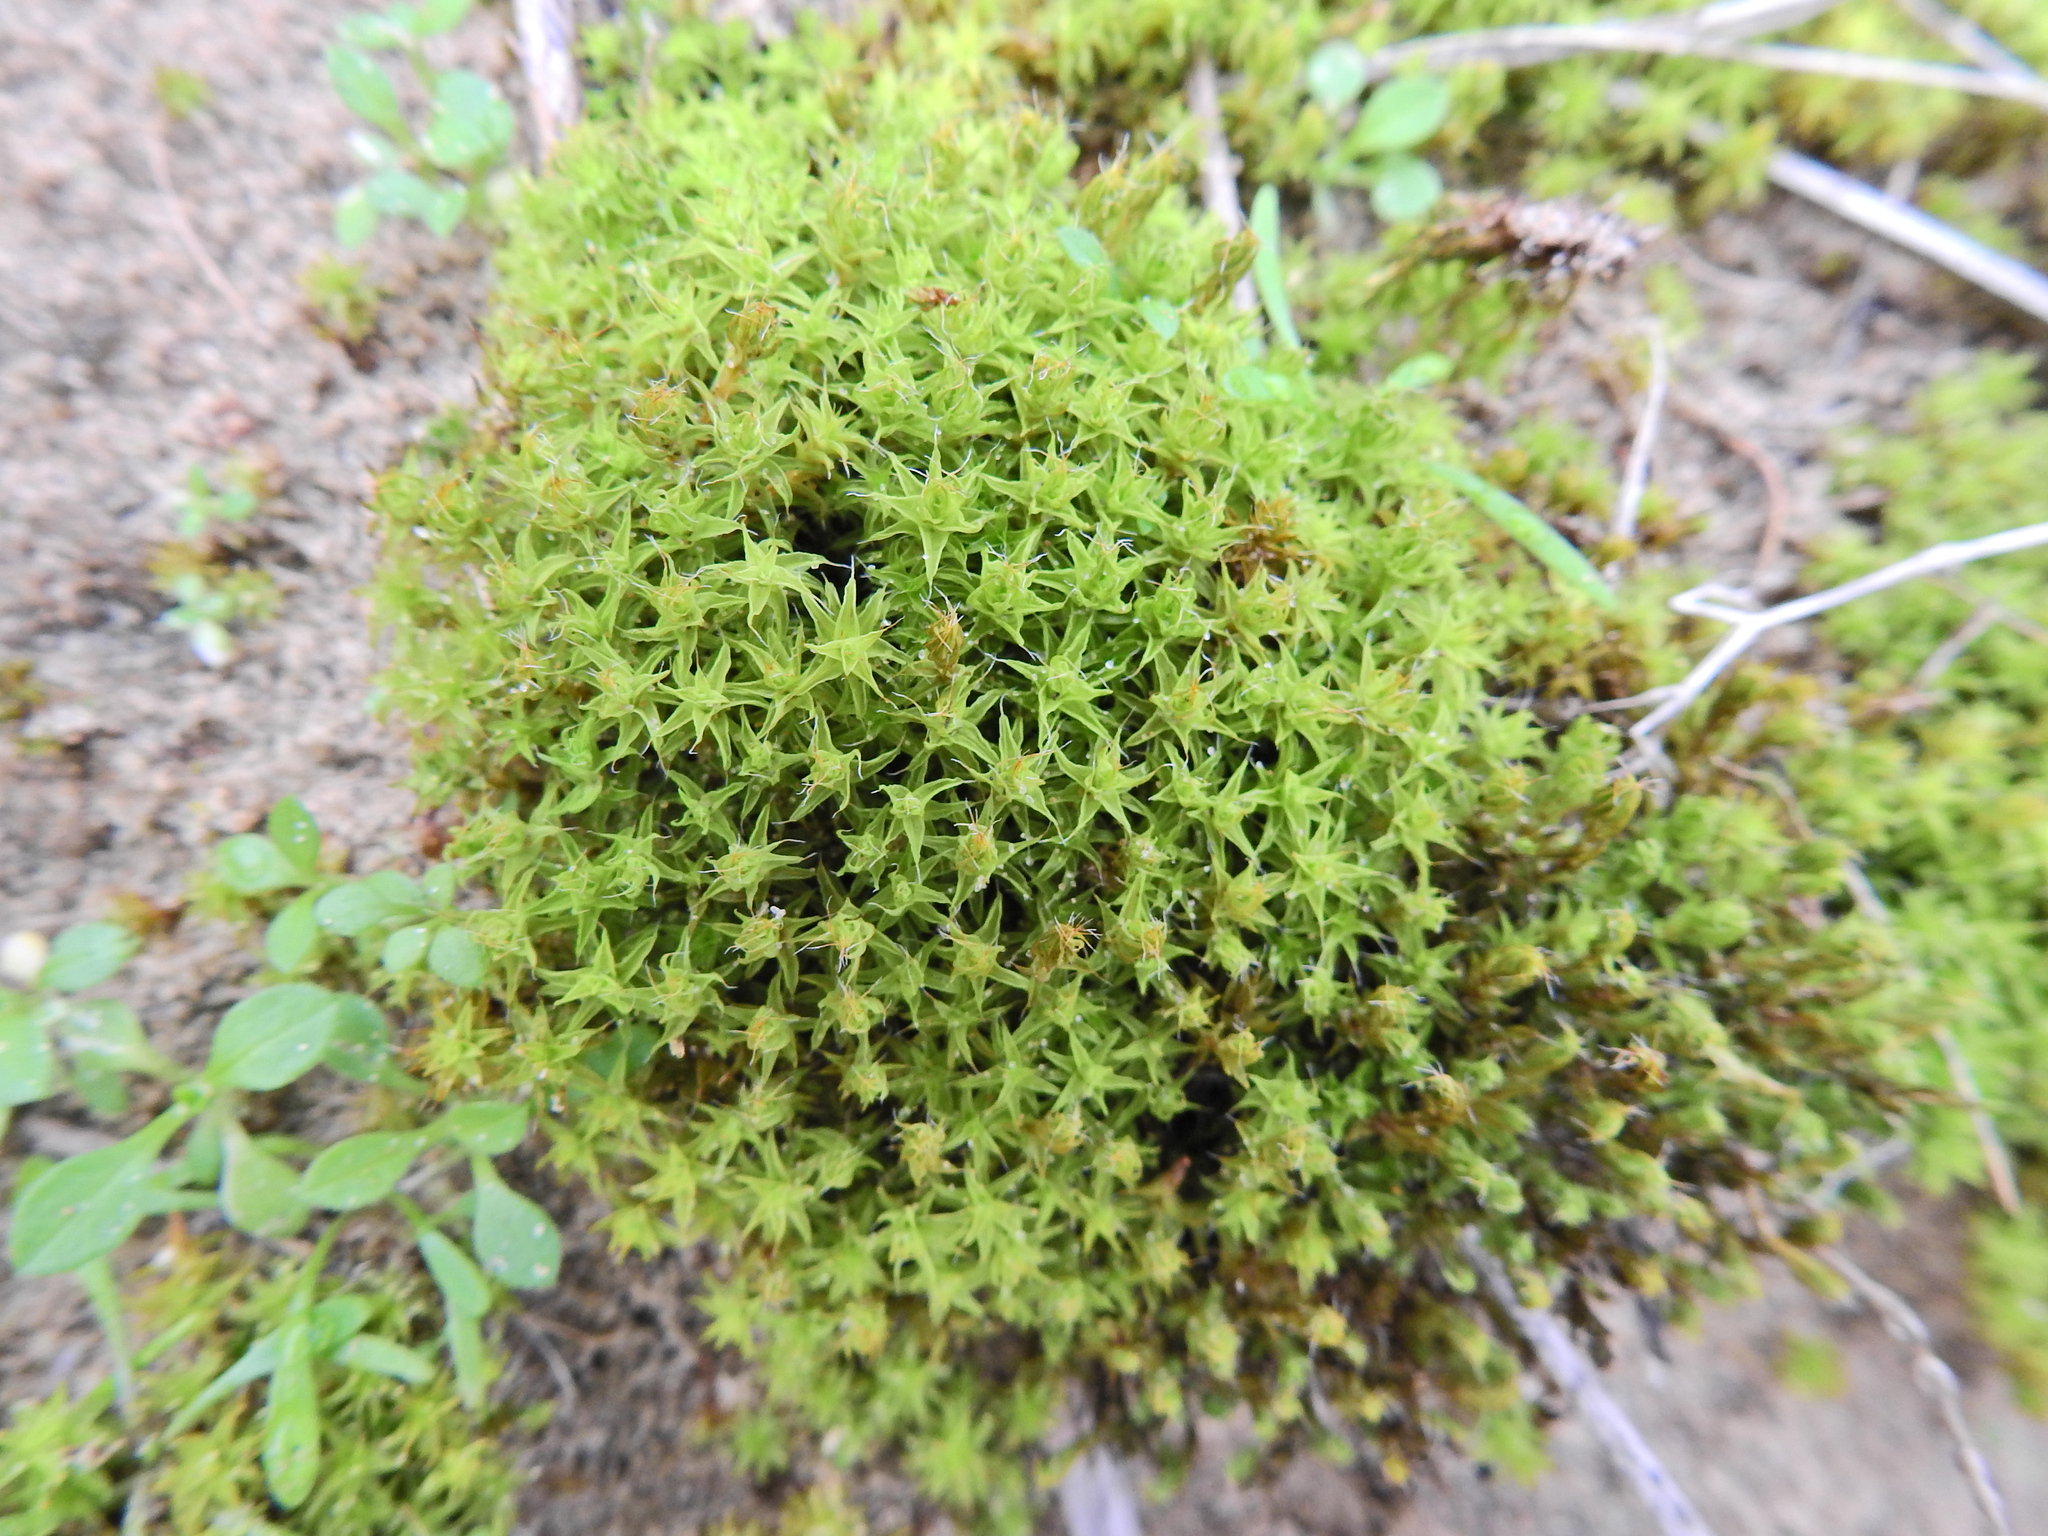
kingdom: Plantae
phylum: Bryophyta
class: Bryopsida
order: Pottiales
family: Pottiaceae
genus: Syntrichia
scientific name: Syntrichia ruralis
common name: Sidewalk screw moss
